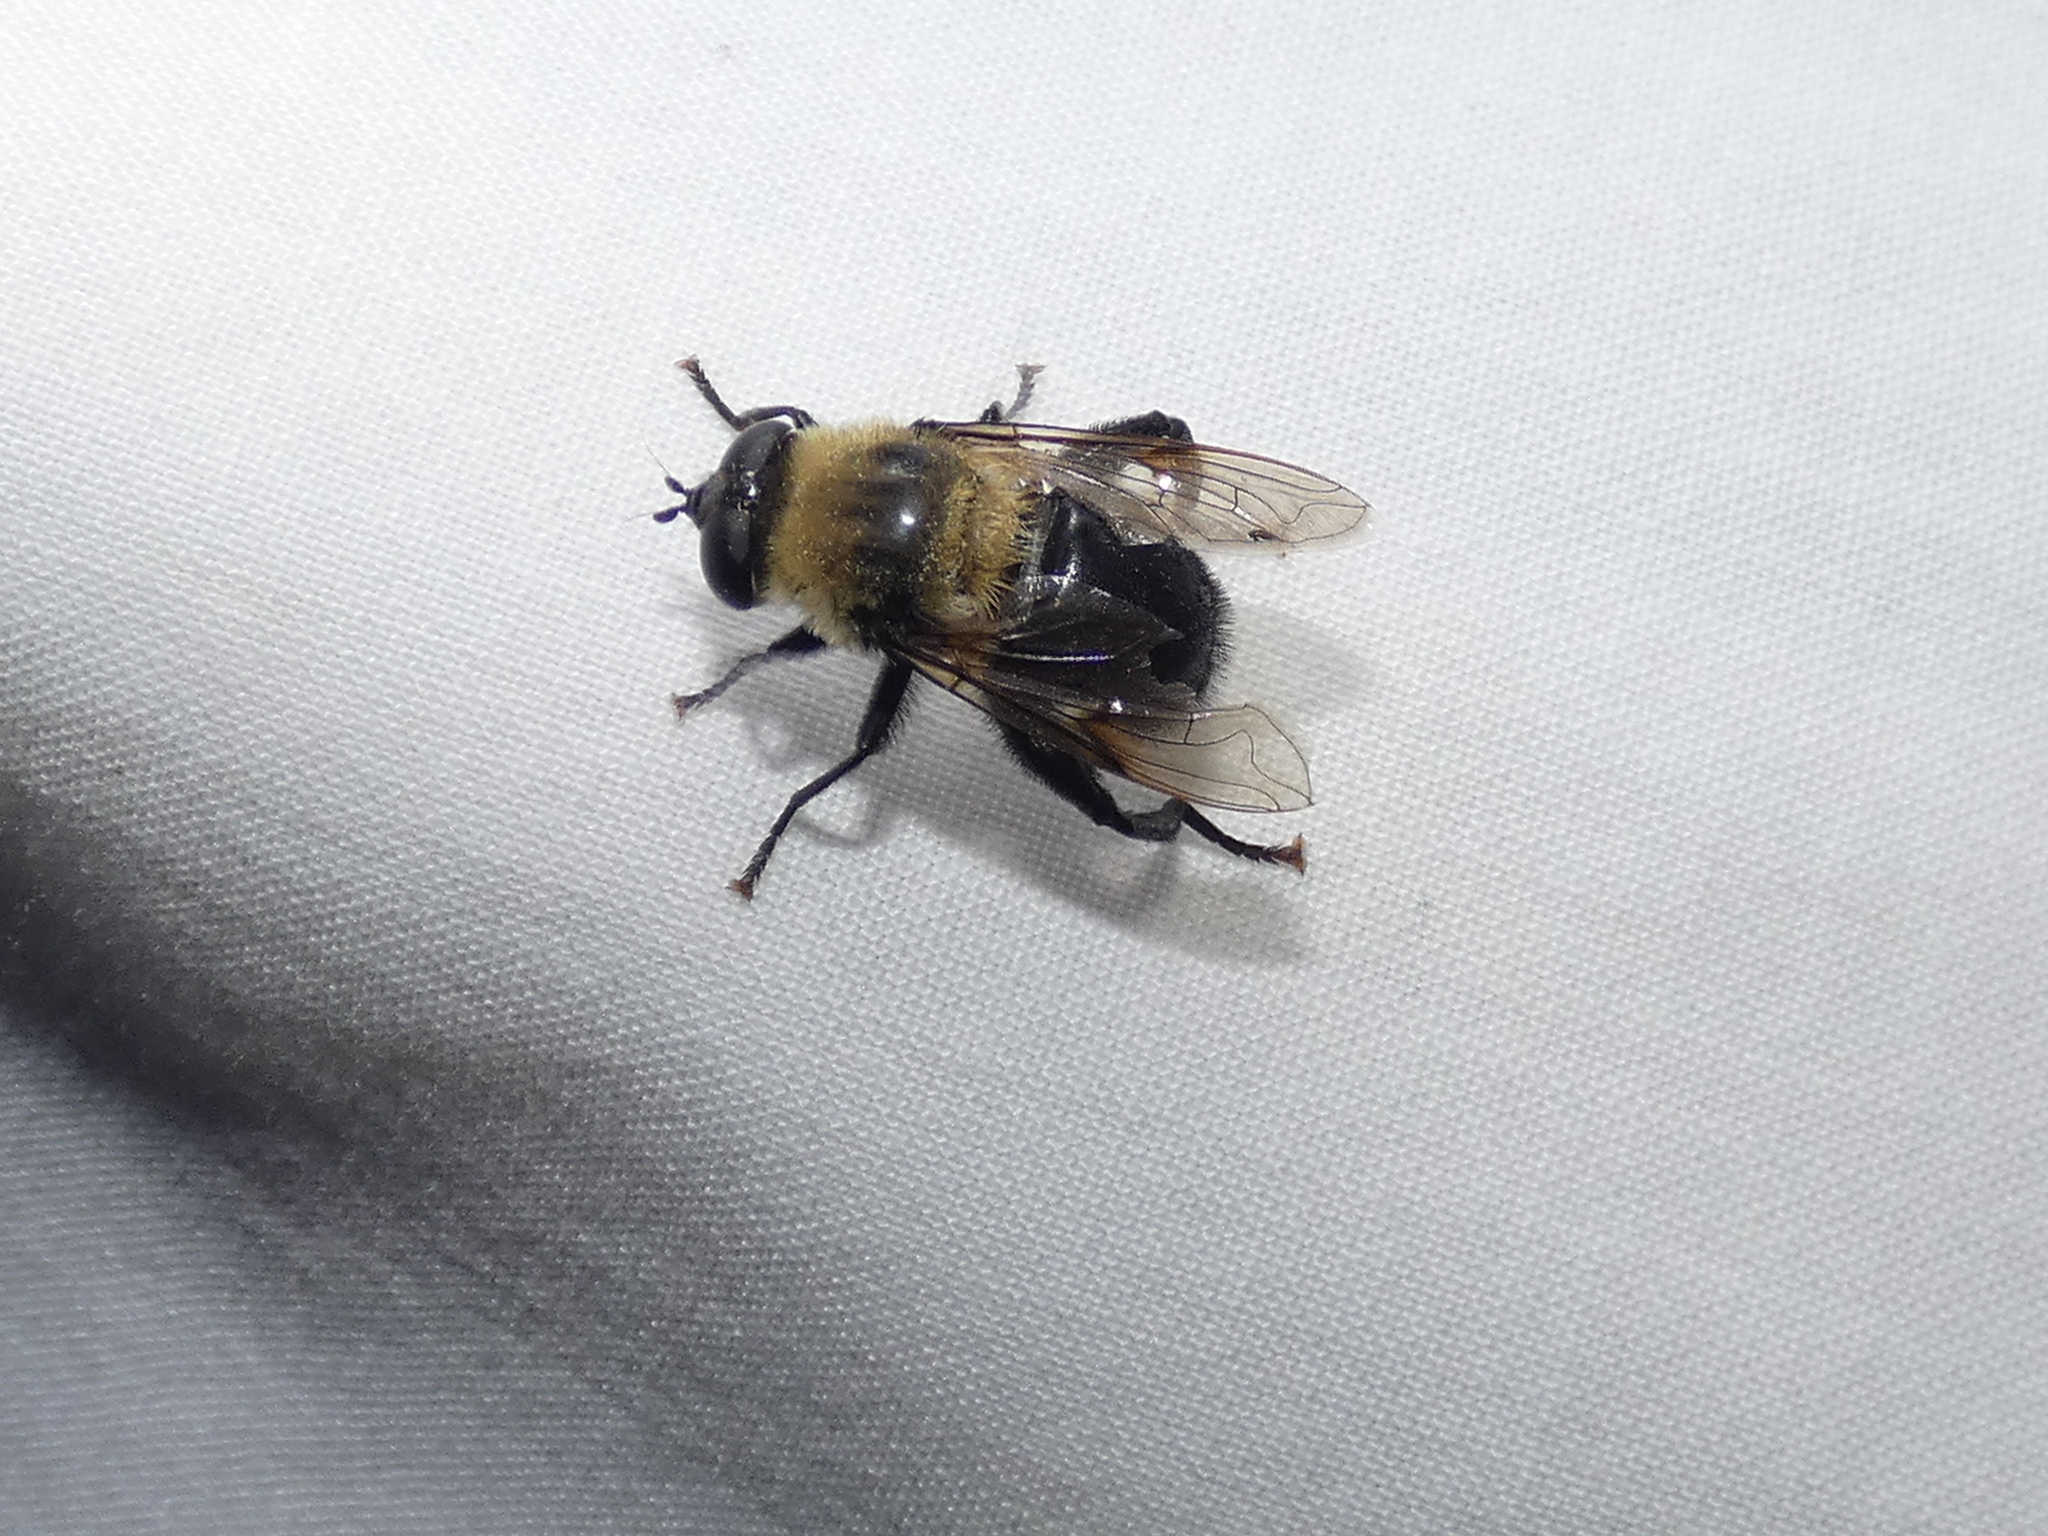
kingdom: Animalia
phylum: Arthropoda
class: Insecta
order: Diptera
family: Syrphidae
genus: Imatisma
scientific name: Imatisma bautias
